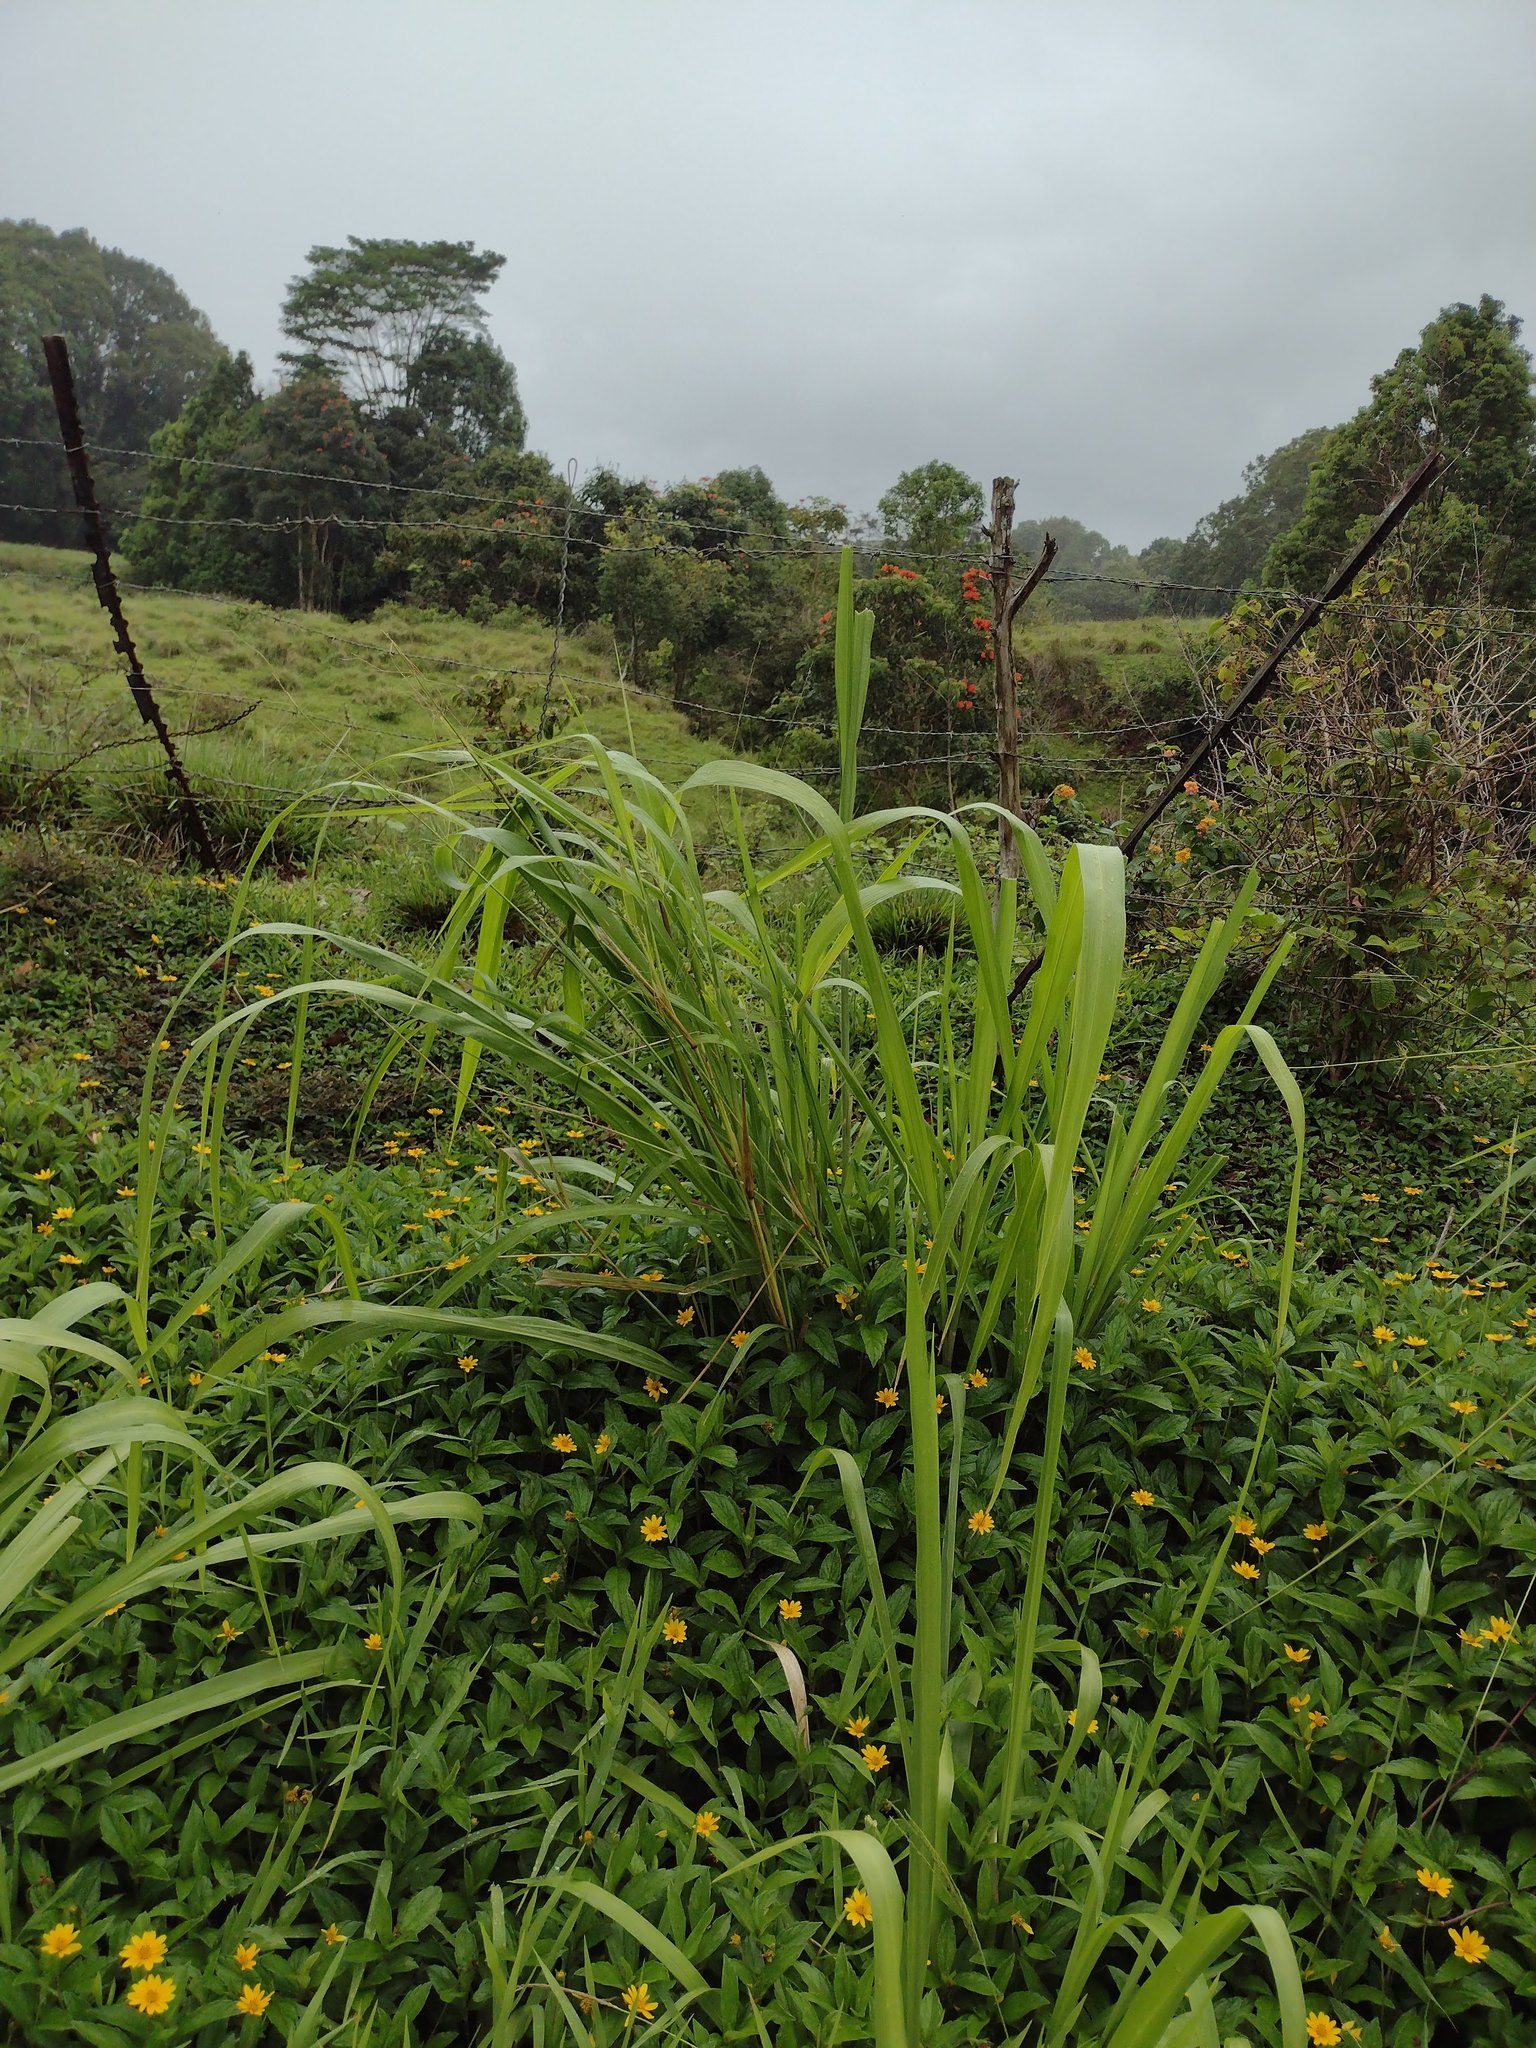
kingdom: Plantae
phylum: Tracheophyta
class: Liliopsida
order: Poales
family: Poaceae
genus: Megathyrsus
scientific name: Megathyrsus maximus
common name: Guineagrass
